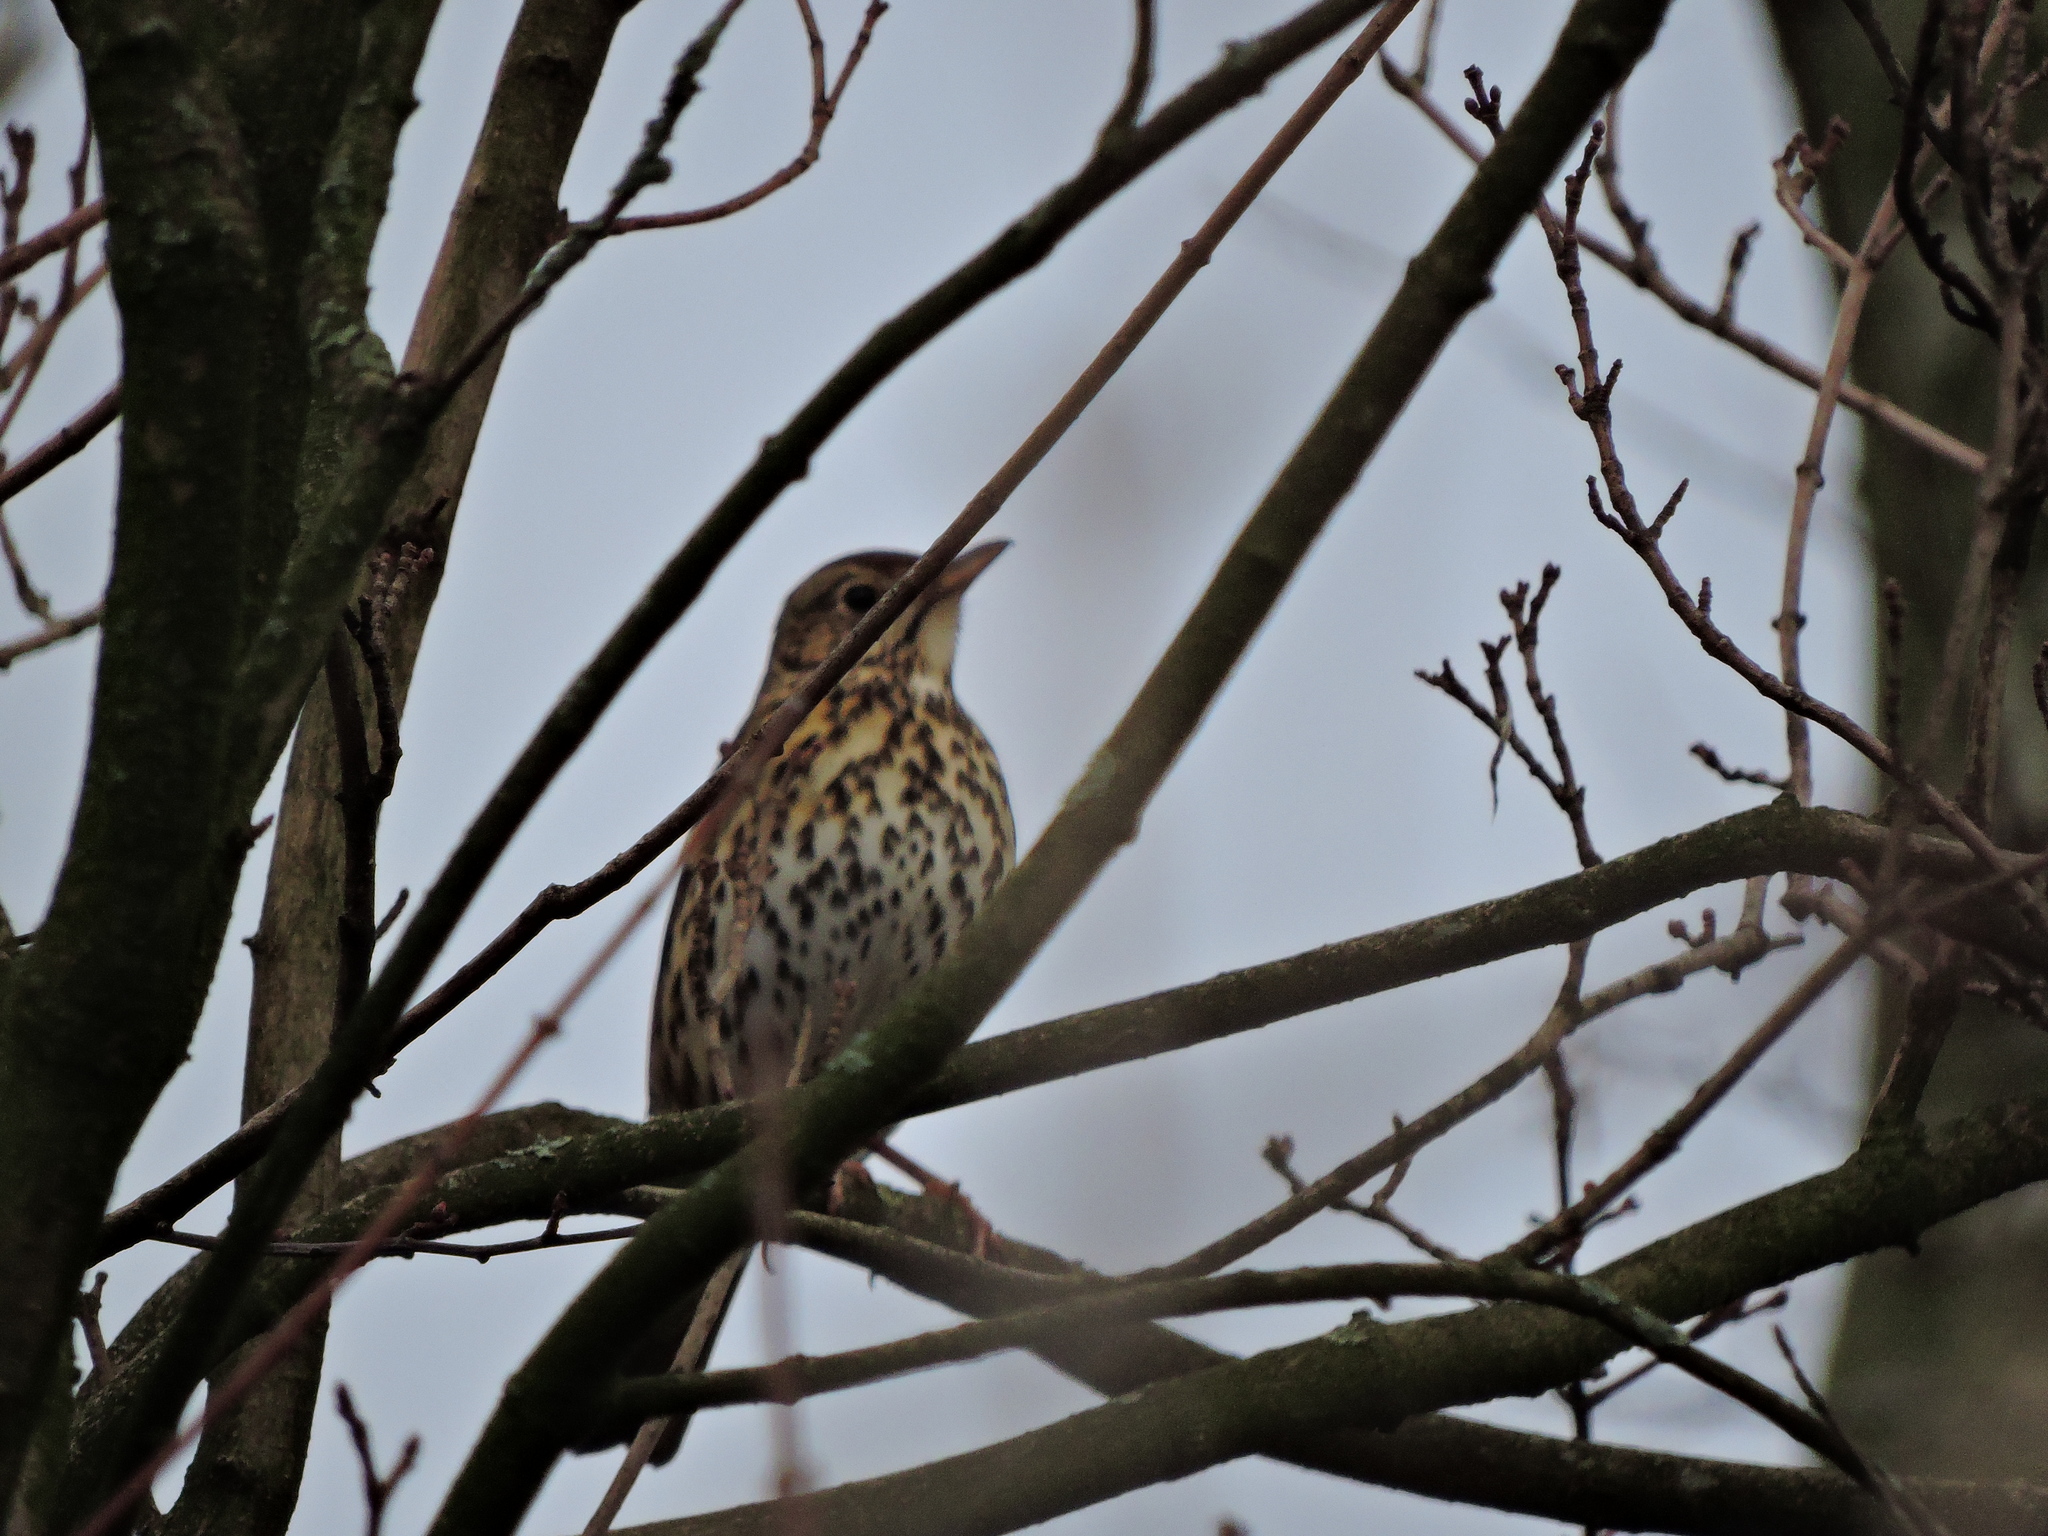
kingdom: Animalia
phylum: Chordata
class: Aves
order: Passeriformes
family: Turdidae
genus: Turdus
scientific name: Turdus philomelos
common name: Song thrush
